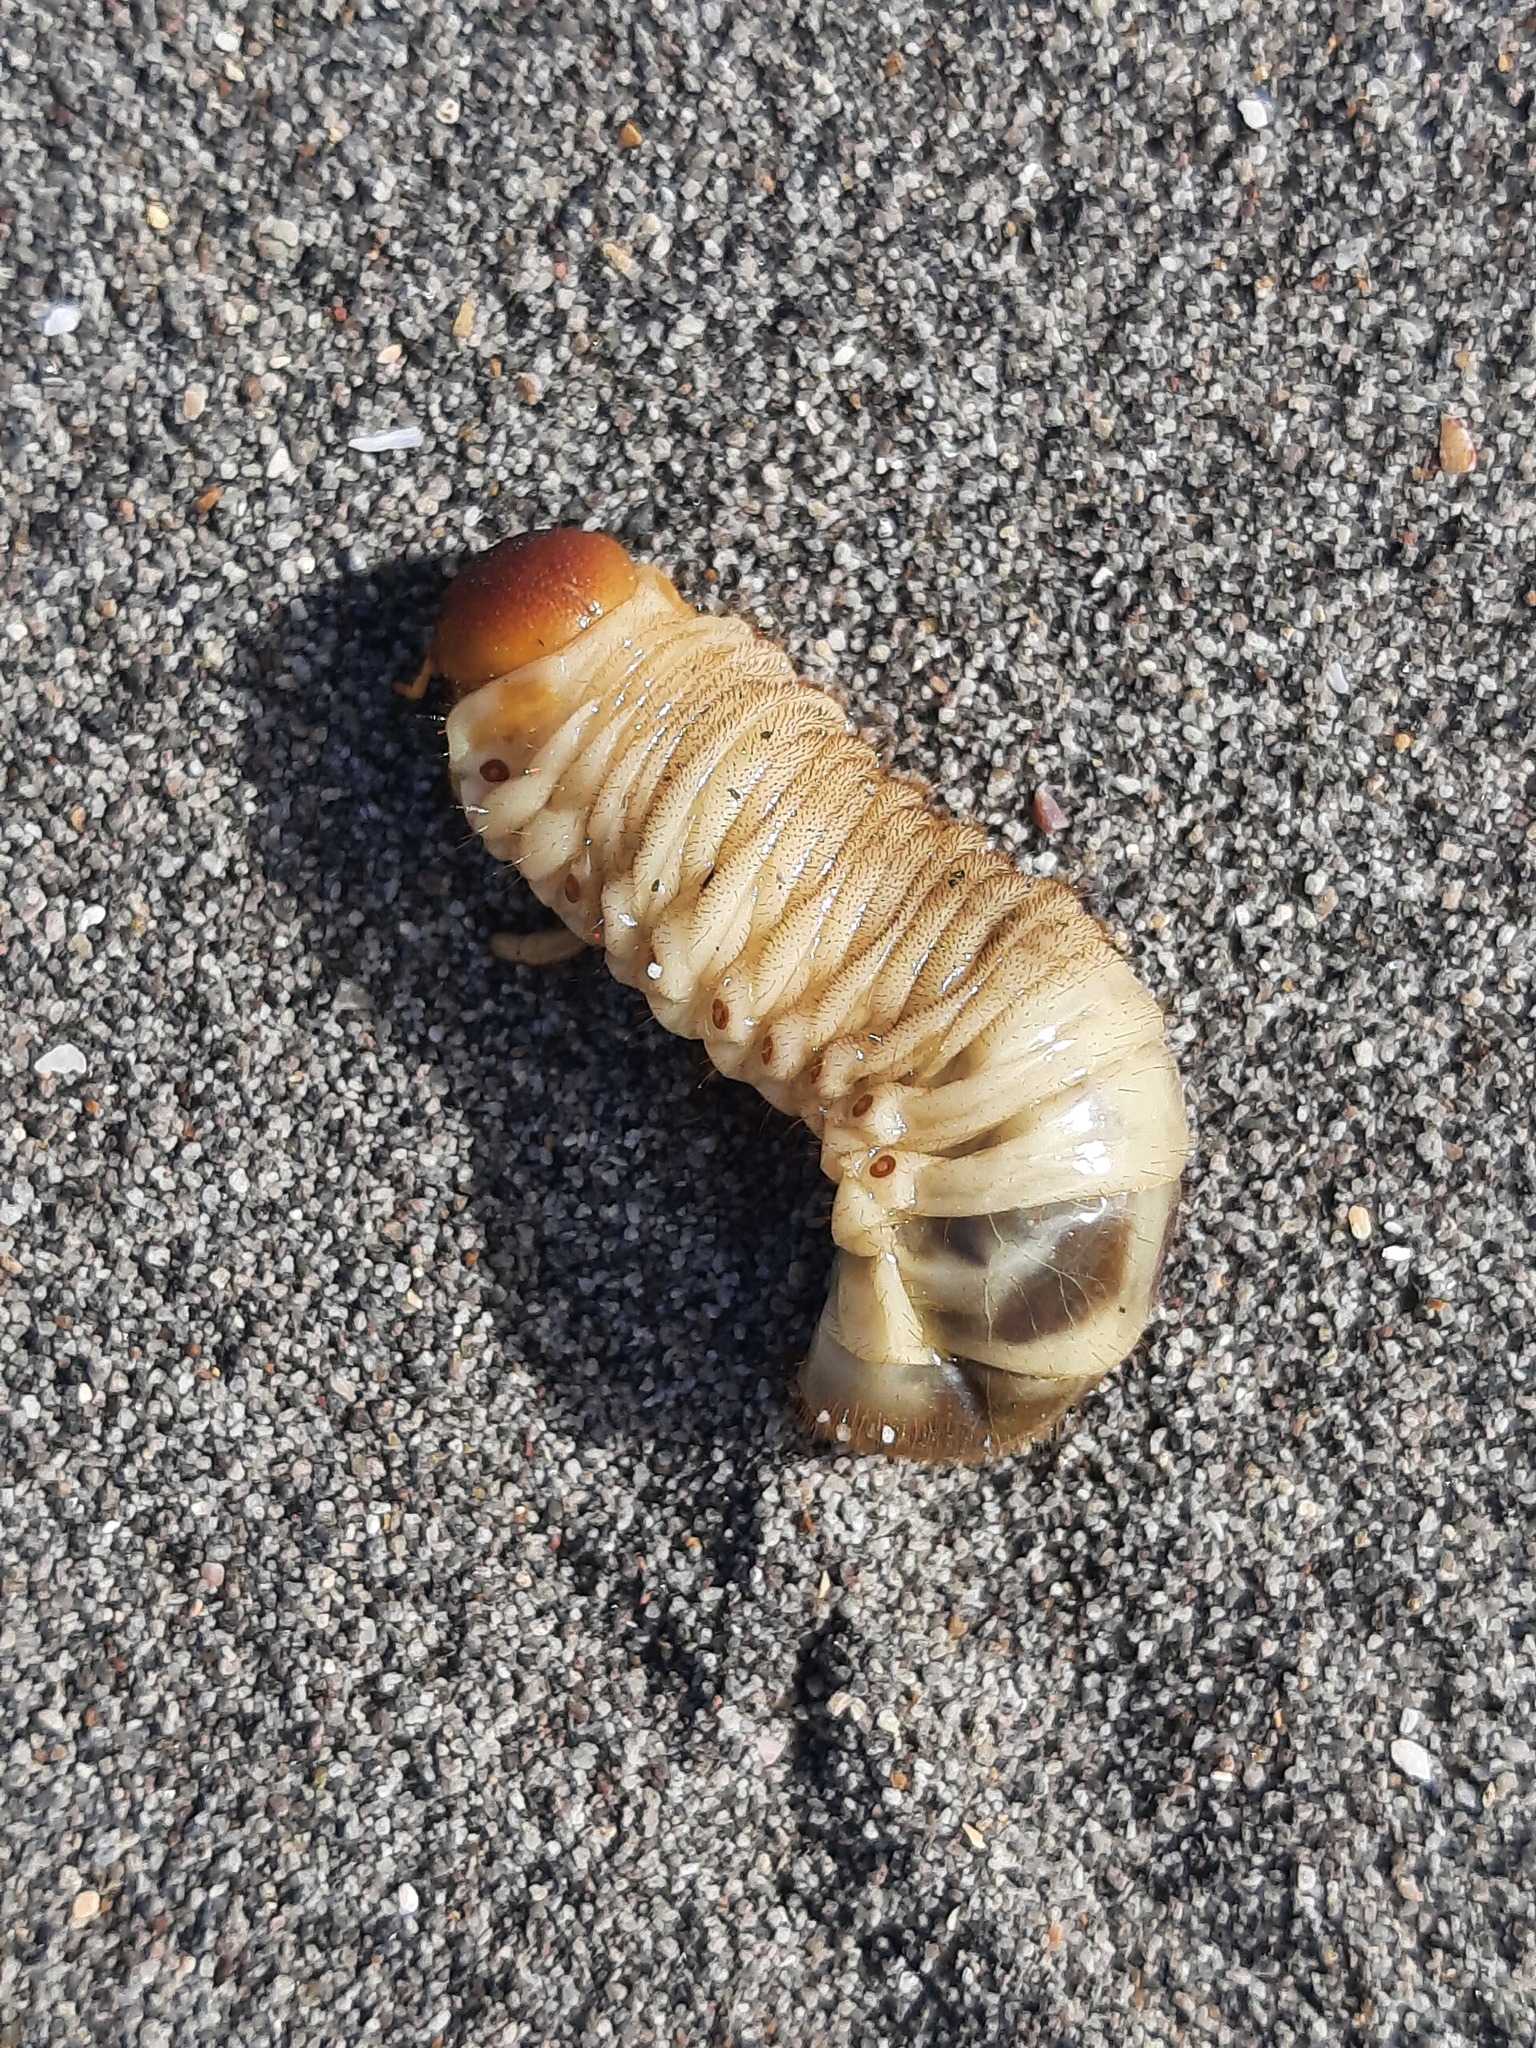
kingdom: Animalia
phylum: Arthropoda
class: Insecta
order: Coleoptera
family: Scarabaeidae
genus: Pericoptus
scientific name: Pericoptus truncatus
